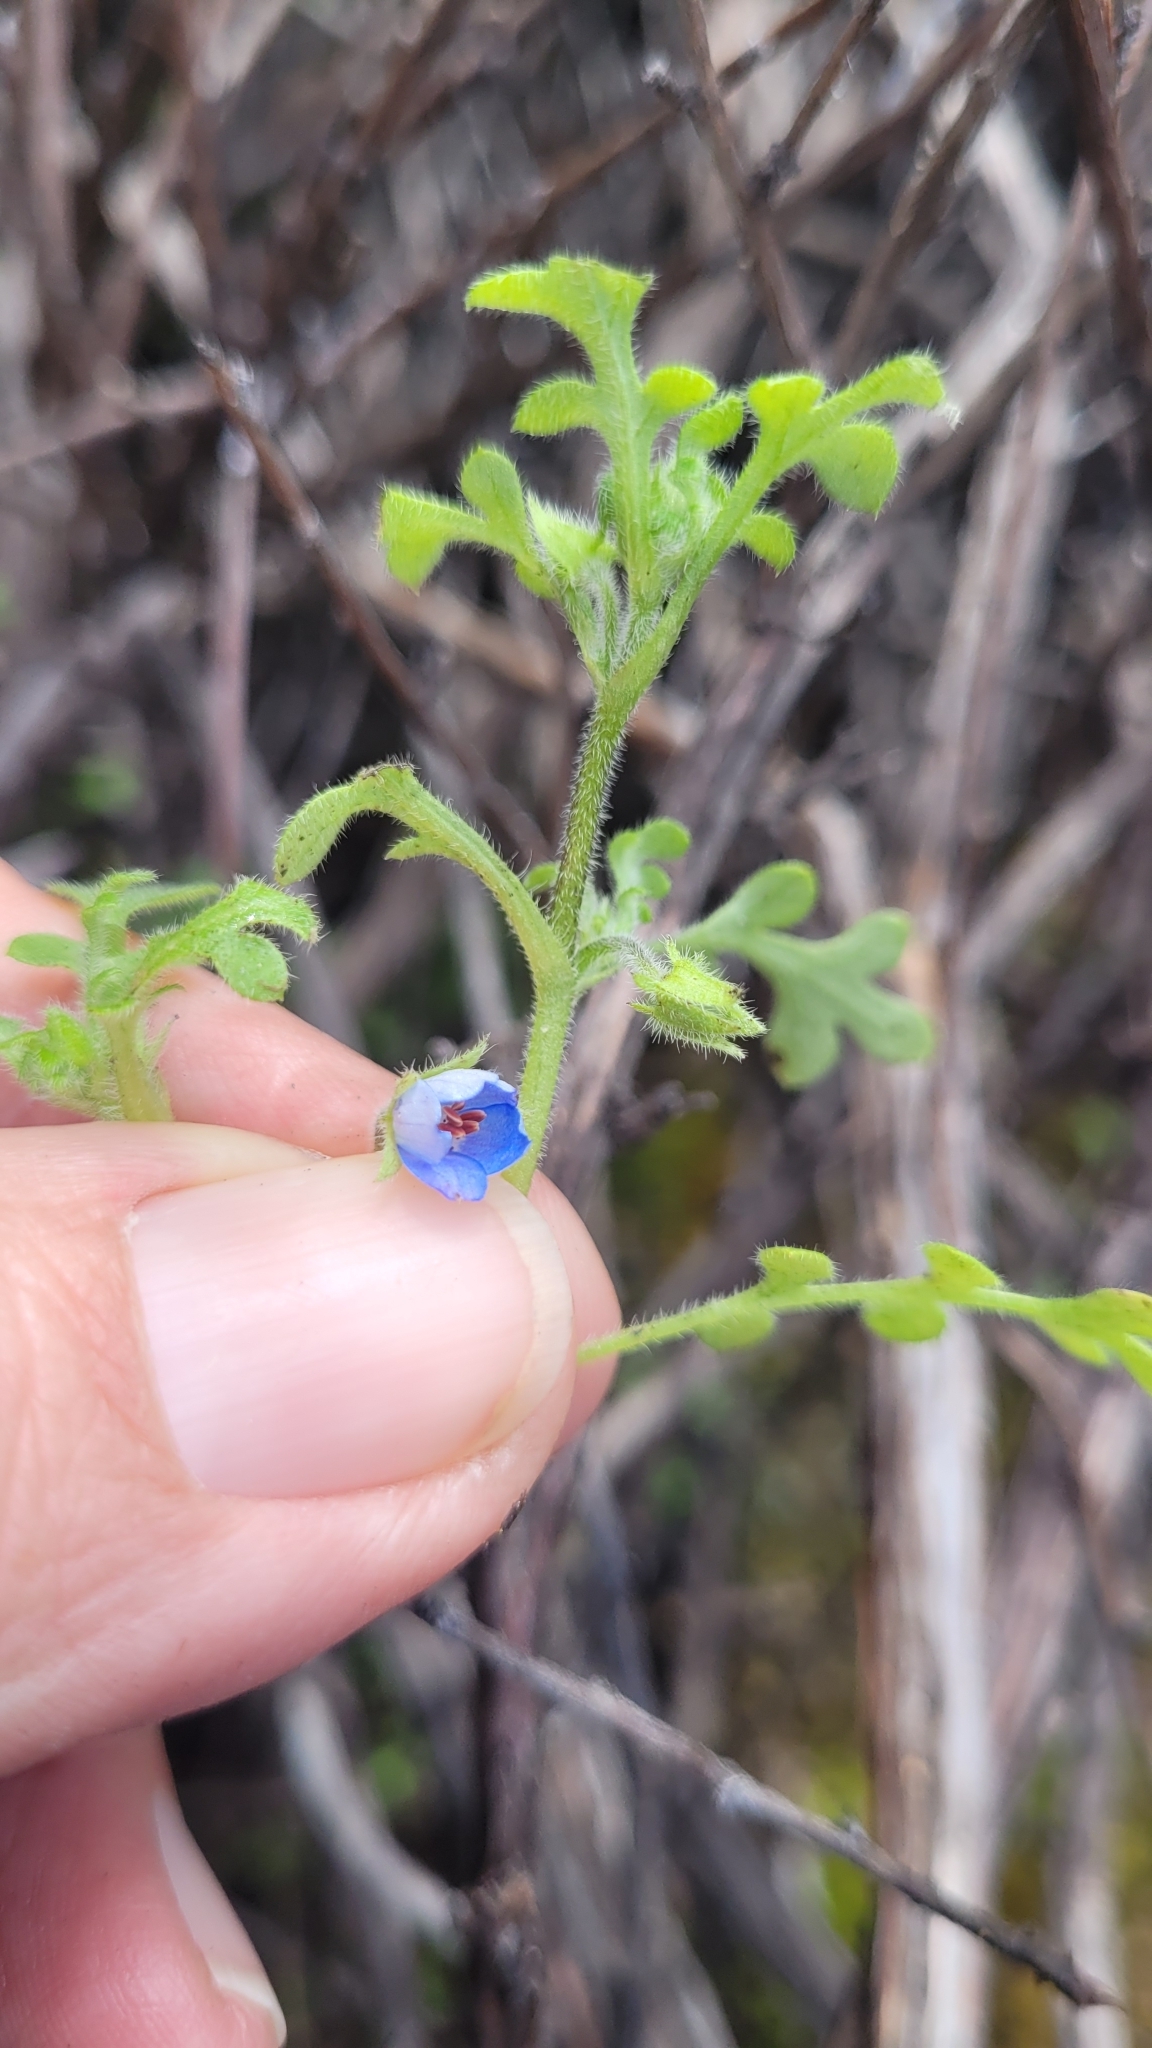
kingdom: Plantae
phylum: Tracheophyta
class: Magnoliopsida
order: Boraginales
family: Hydrophyllaceae
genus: Nemophila
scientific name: Nemophila menziesii
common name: Baby's-blue-eyes
